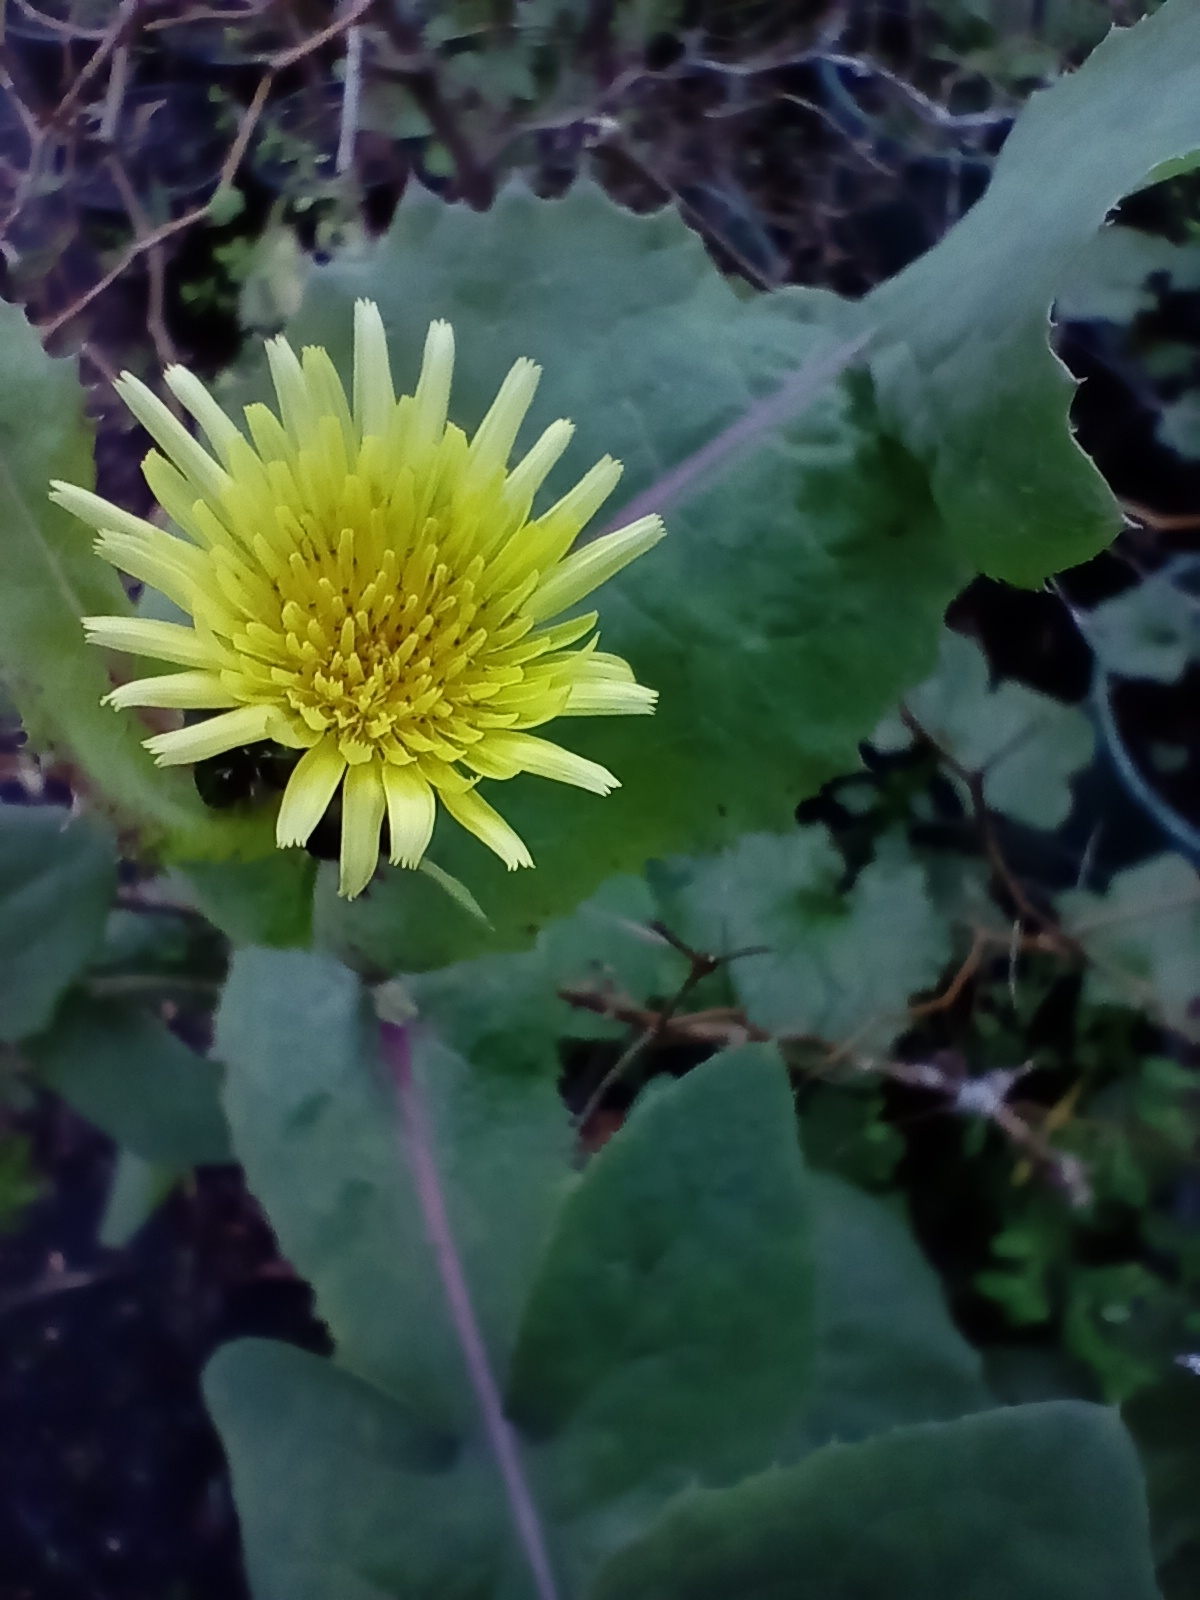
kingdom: Plantae
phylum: Tracheophyta
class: Magnoliopsida
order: Asterales
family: Asteraceae
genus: Sonchus
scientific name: Sonchus oleraceus
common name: Common sowthistle
